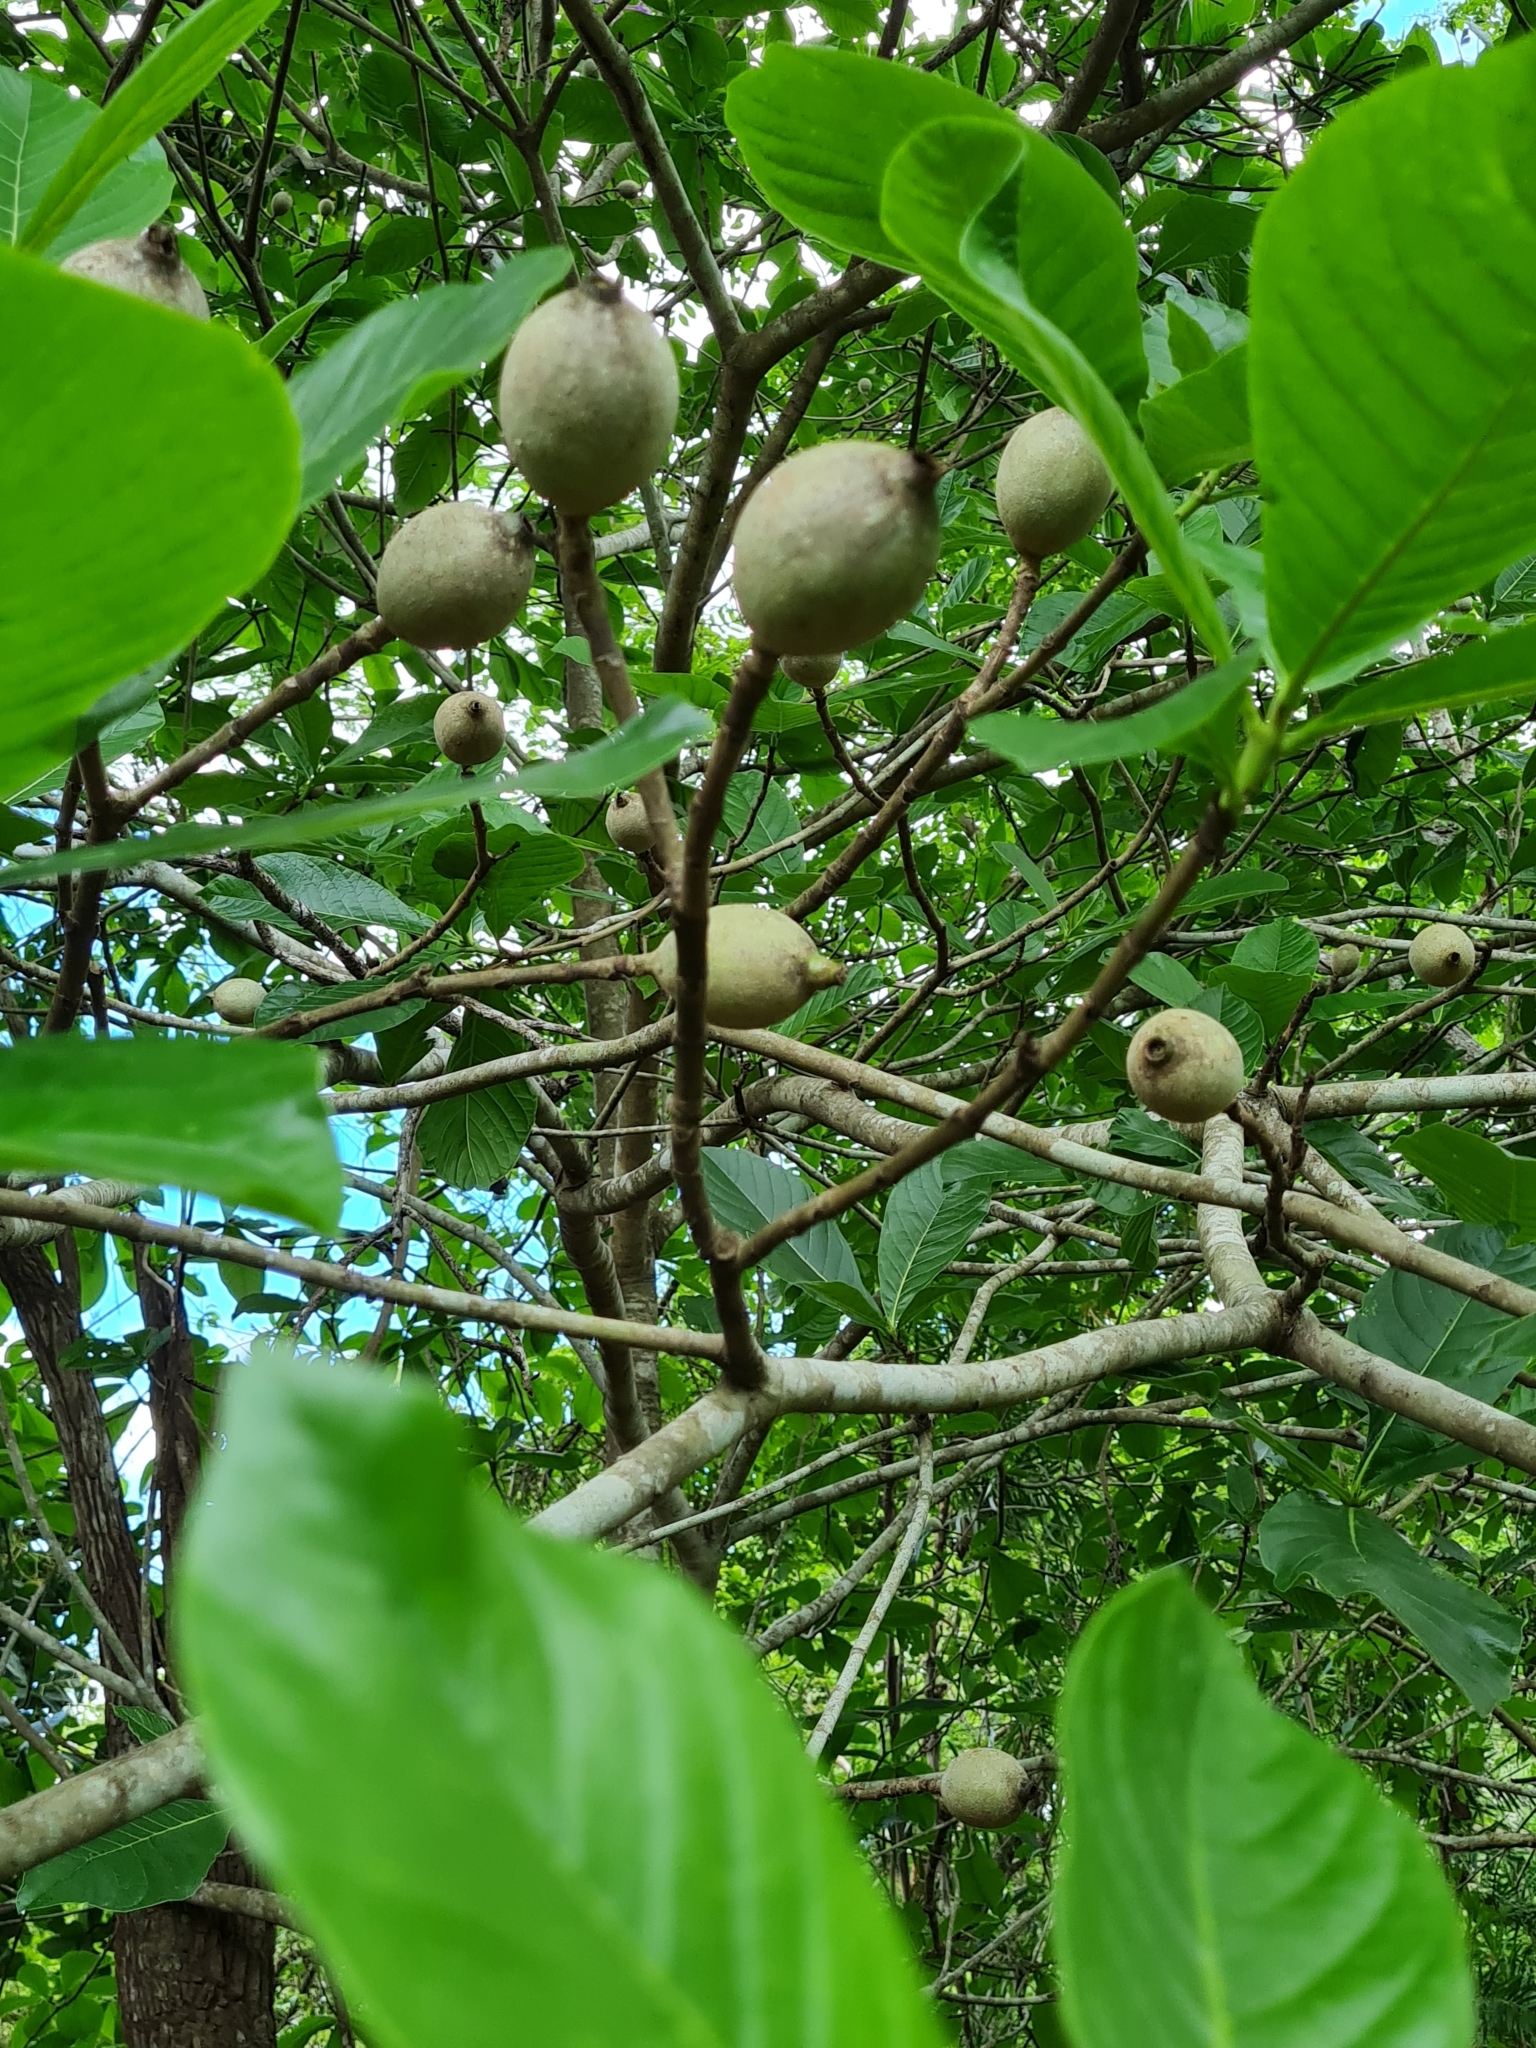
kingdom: Plantae
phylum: Tracheophyta
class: Magnoliopsida
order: Gentianales
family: Rubiaceae
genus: Genipa
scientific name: Genipa americana
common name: Genipap
